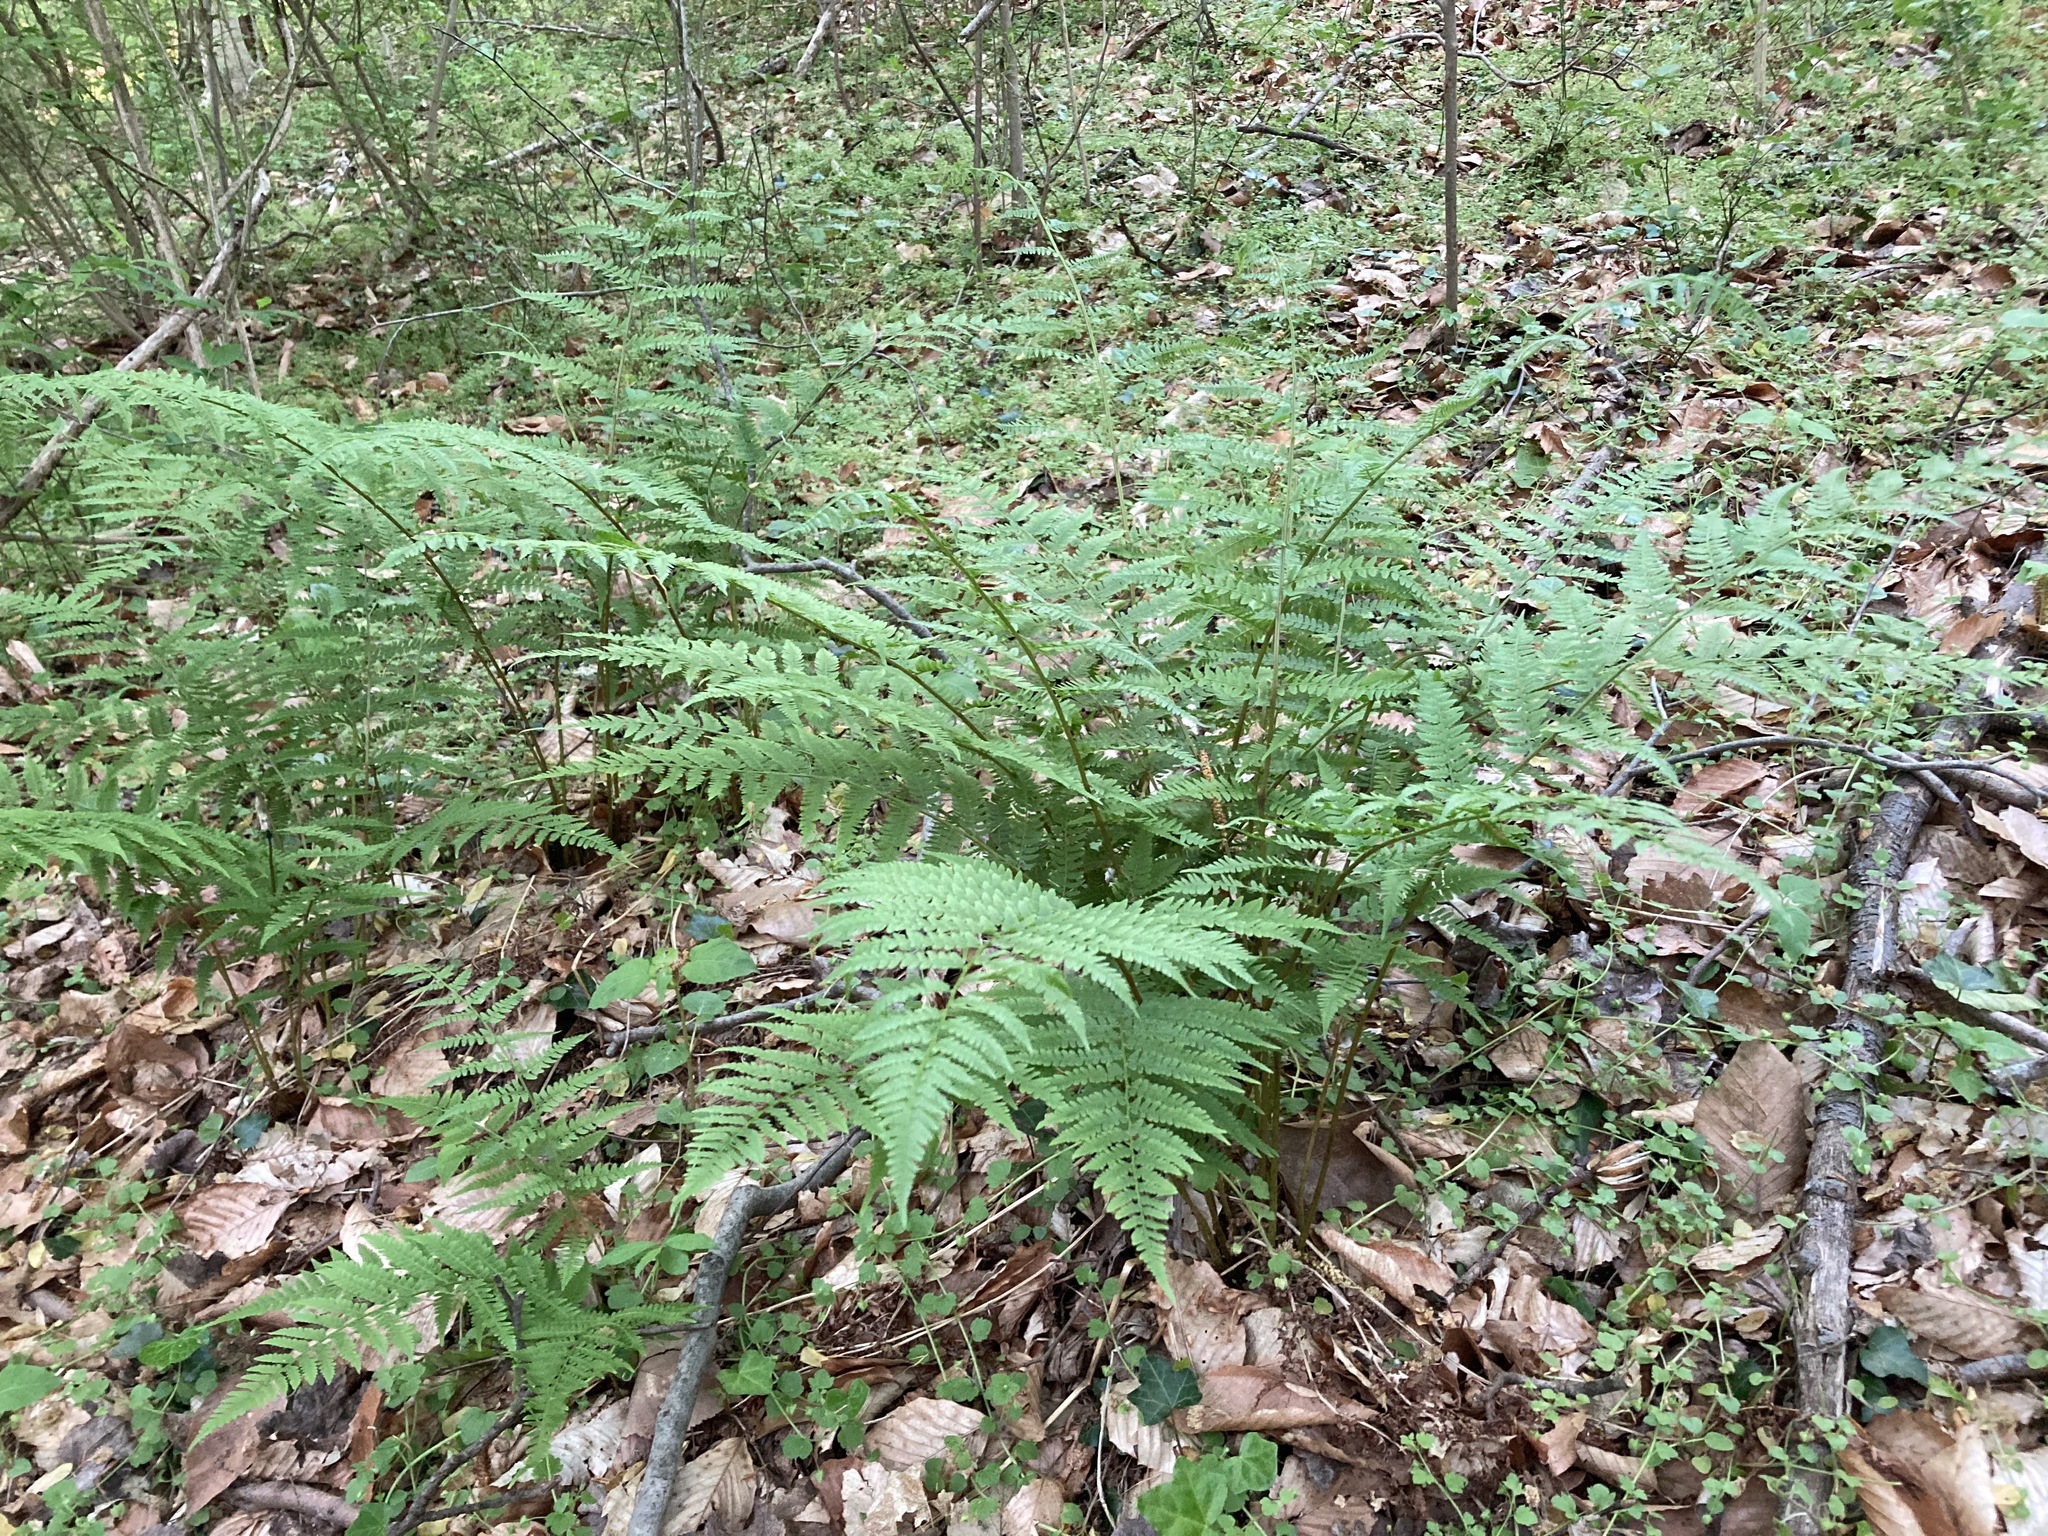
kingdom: Plantae
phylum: Tracheophyta
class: Polypodiopsida
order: Polypodiales
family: Athyriaceae
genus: Athyrium
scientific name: Athyrium asplenioides
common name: Southern lady fern
